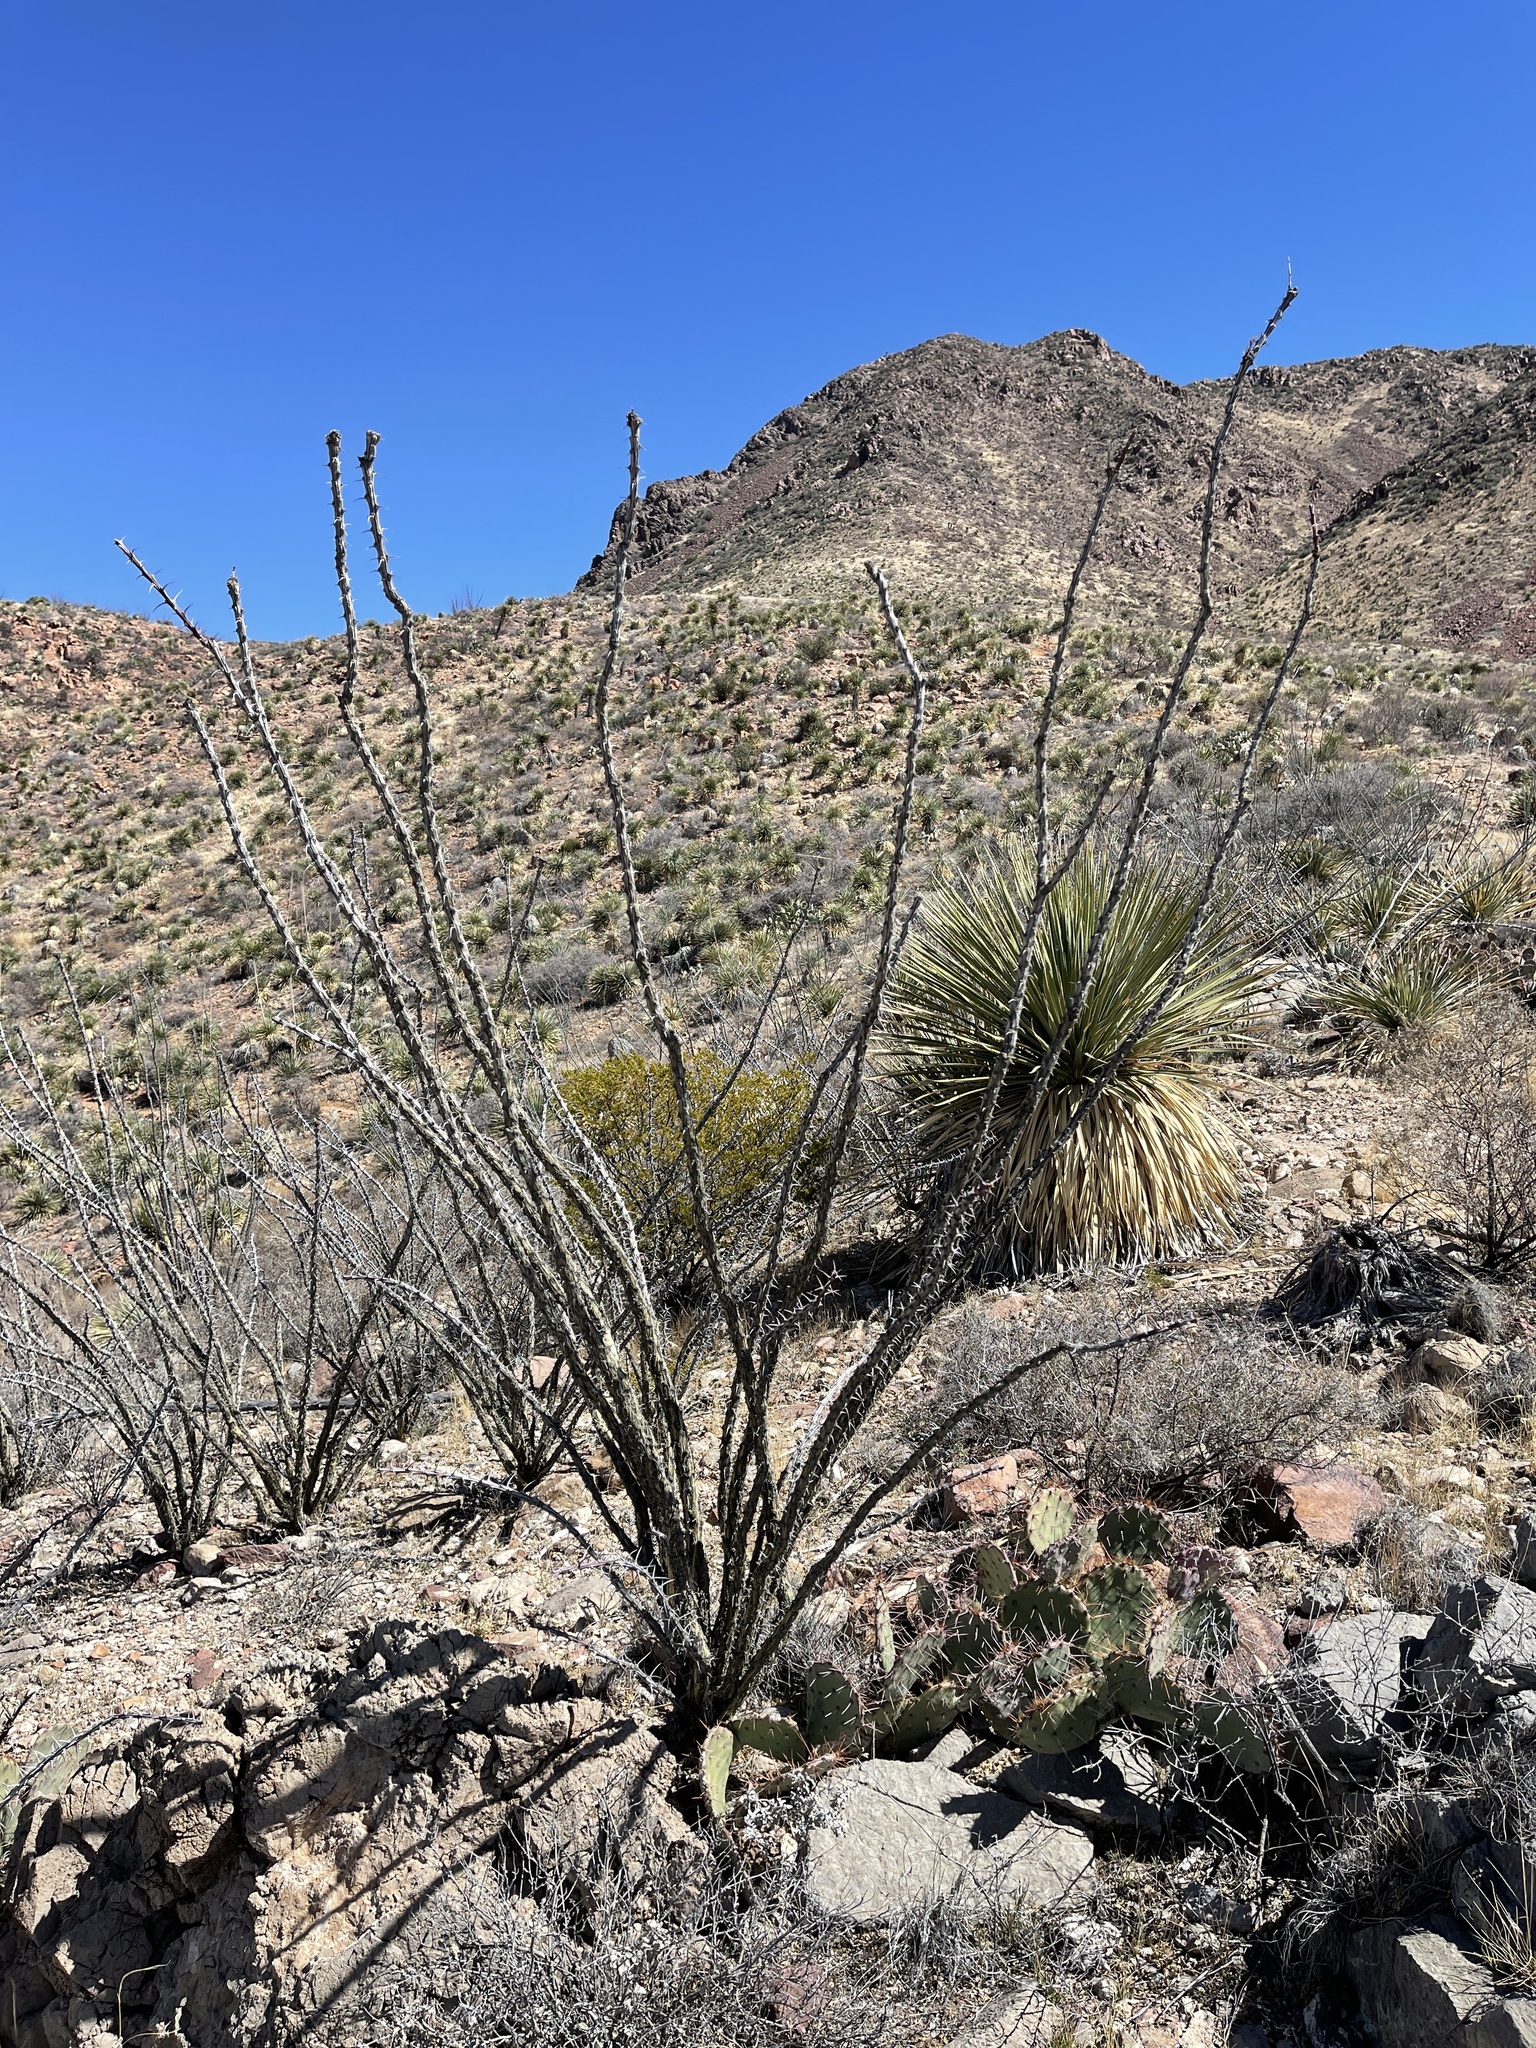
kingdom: Plantae
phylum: Tracheophyta
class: Magnoliopsida
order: Ericales
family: Fouquieriaceae
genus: Fouquieria
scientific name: Fouquieria splendens
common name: Vine-cactus
